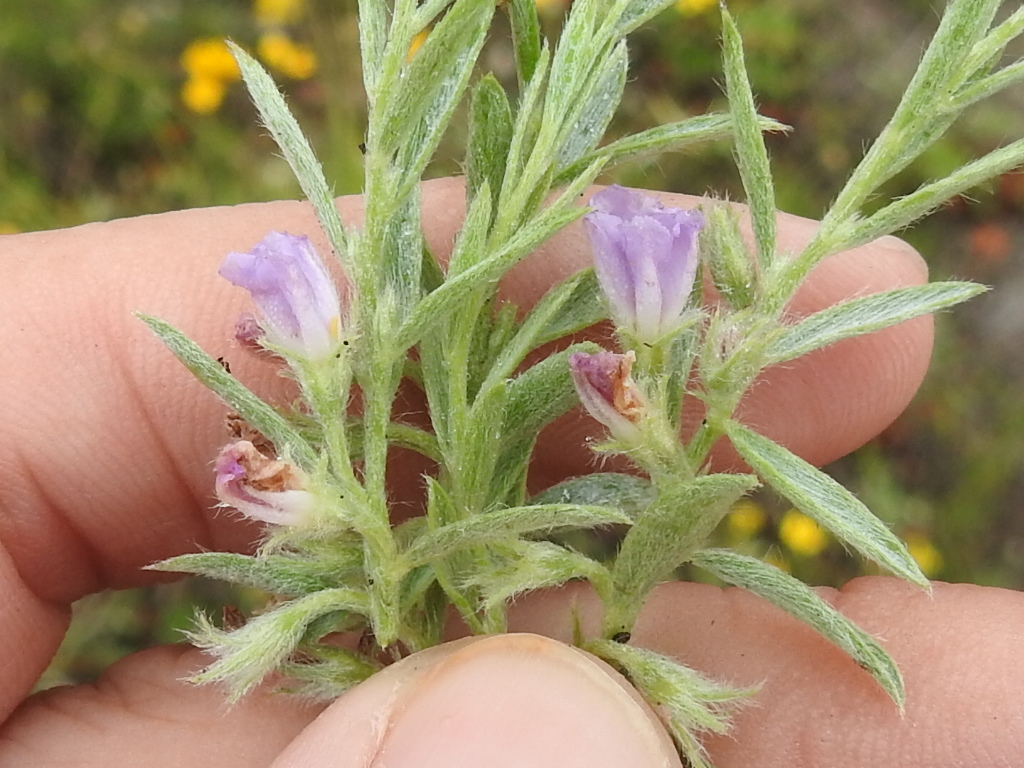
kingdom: Plantae
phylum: Tracheophyta
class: Magnoliopsida
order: Solanales
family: Convolvulaceae
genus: Evolvulus
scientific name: Evolvulus nuttallianus
